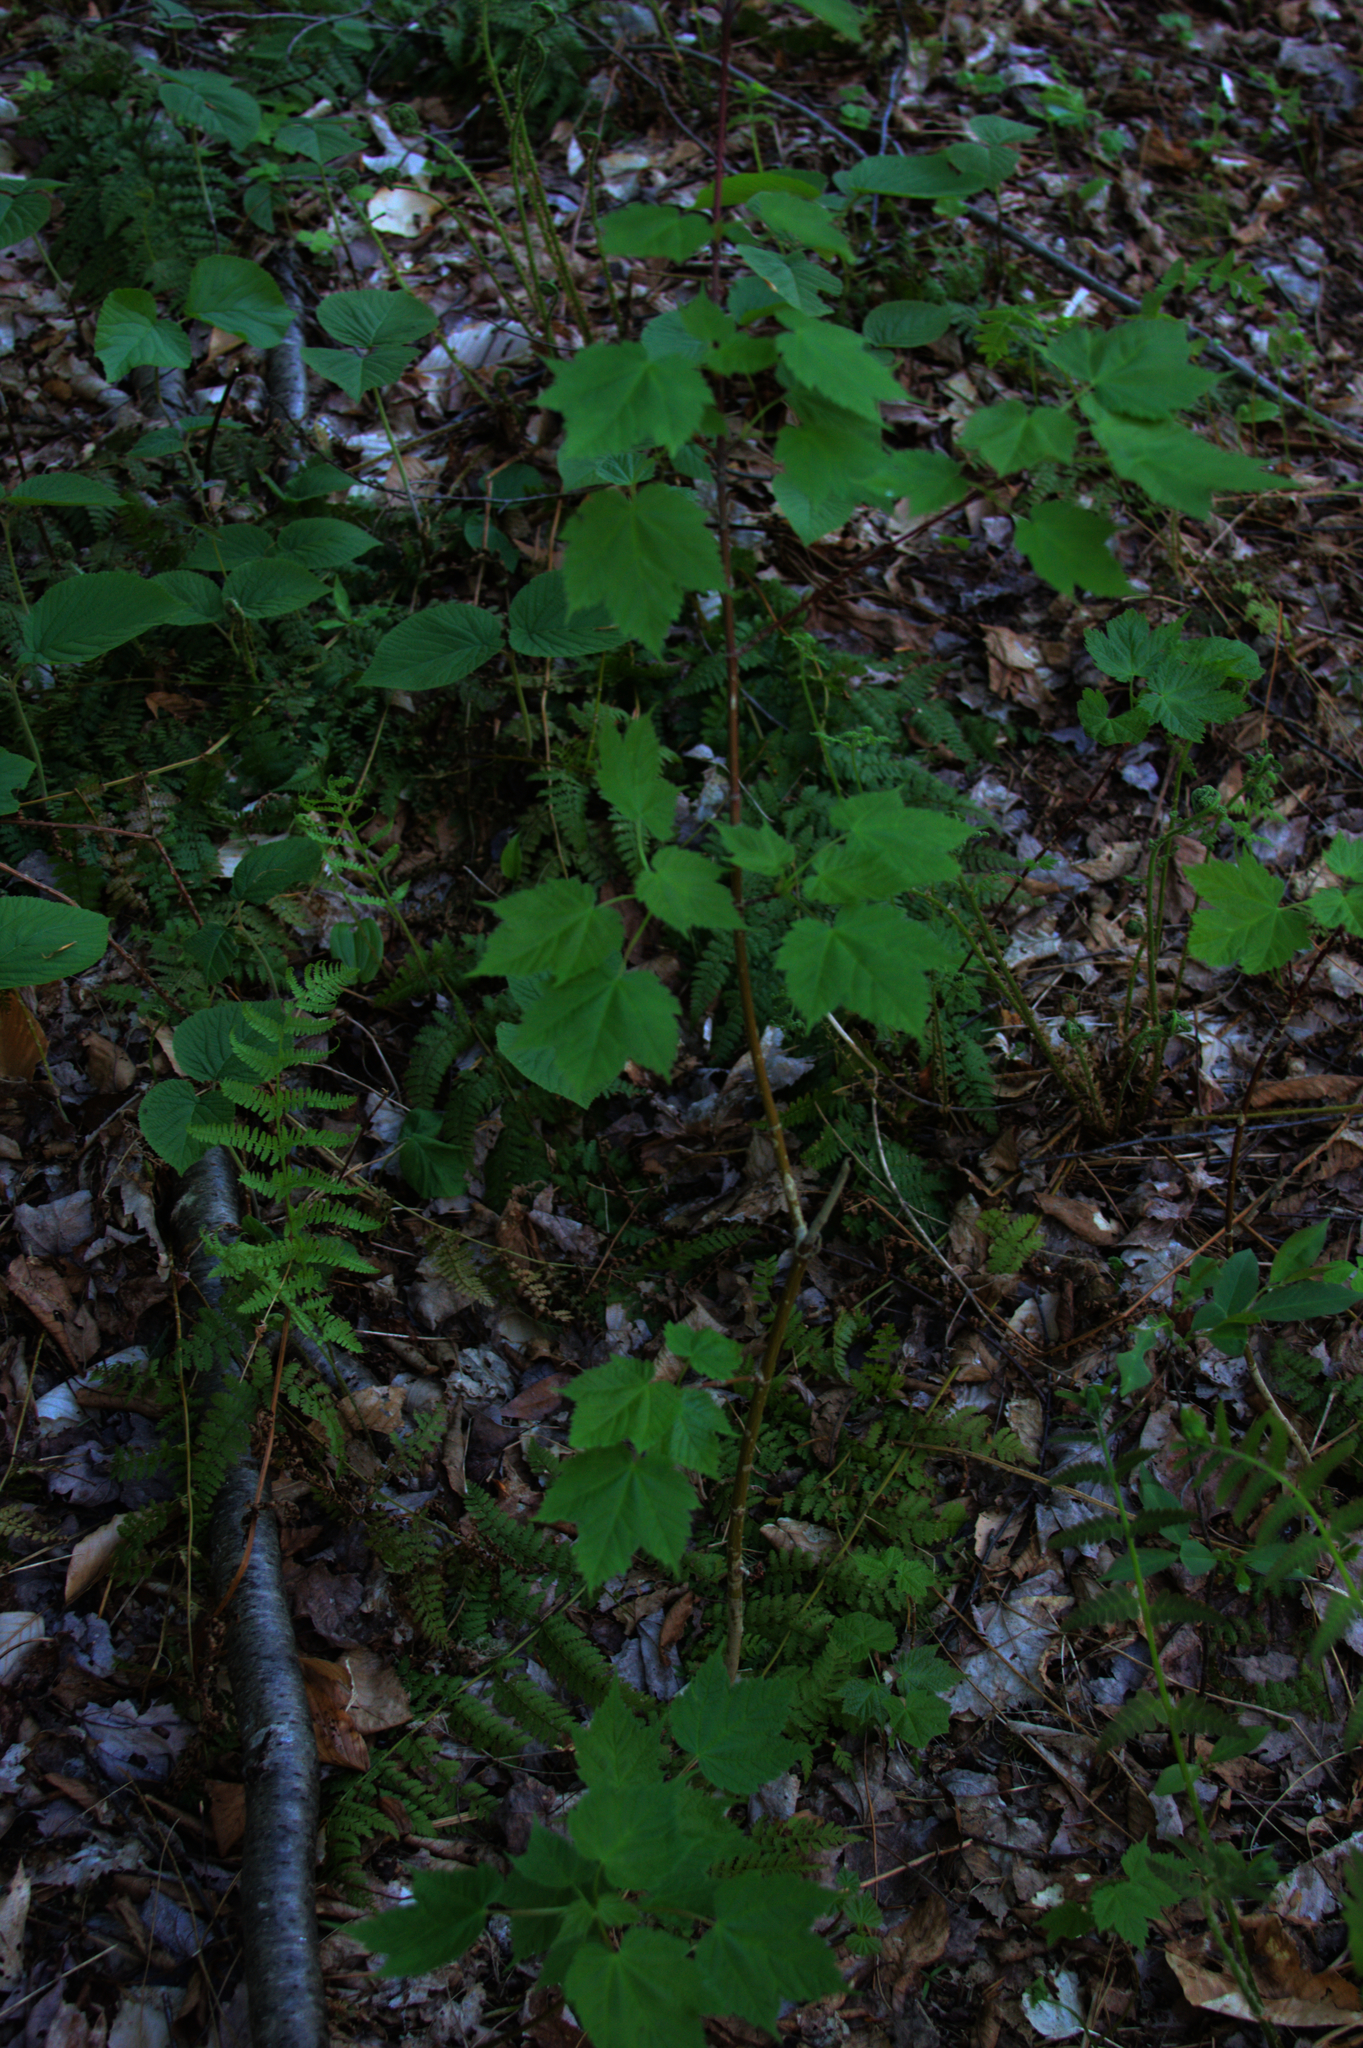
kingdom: Plantae
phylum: Tracheophyta
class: Magnoliopsida
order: Sapindales
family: Sapindaceae
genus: Acer
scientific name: Acer spicatum
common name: Mountain maple
